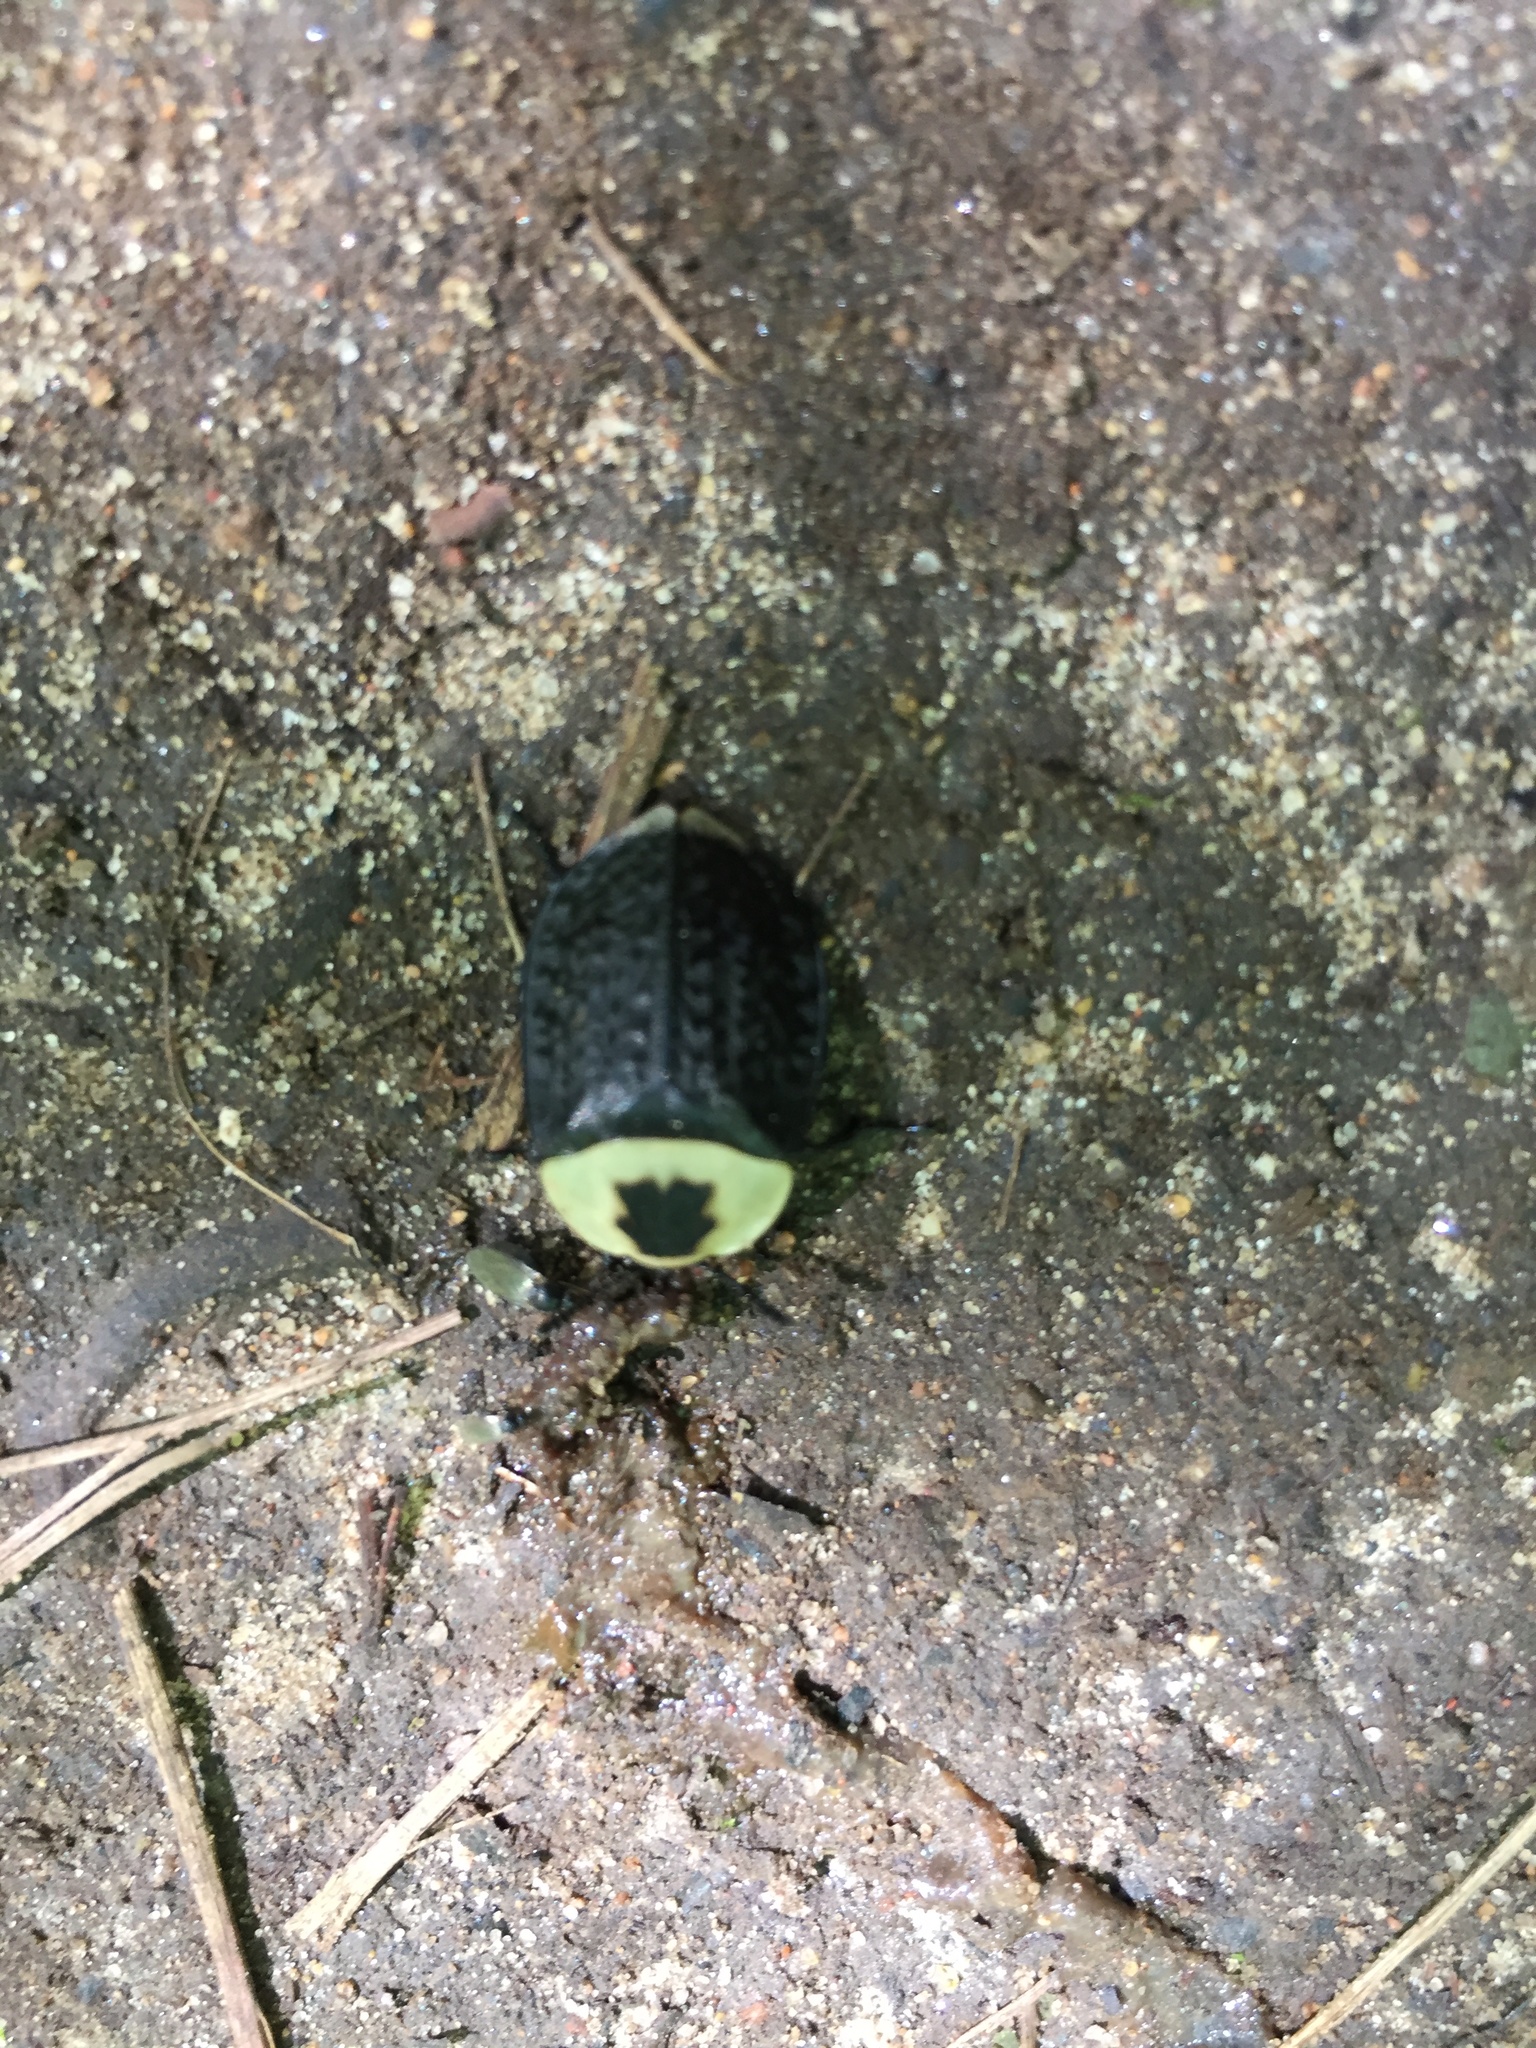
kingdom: Animalia
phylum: Arthropoda
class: Insecta
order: Coleoptera
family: Staphylinidae
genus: Necrophila
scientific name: Necrophila americana
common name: American carrion beetle
